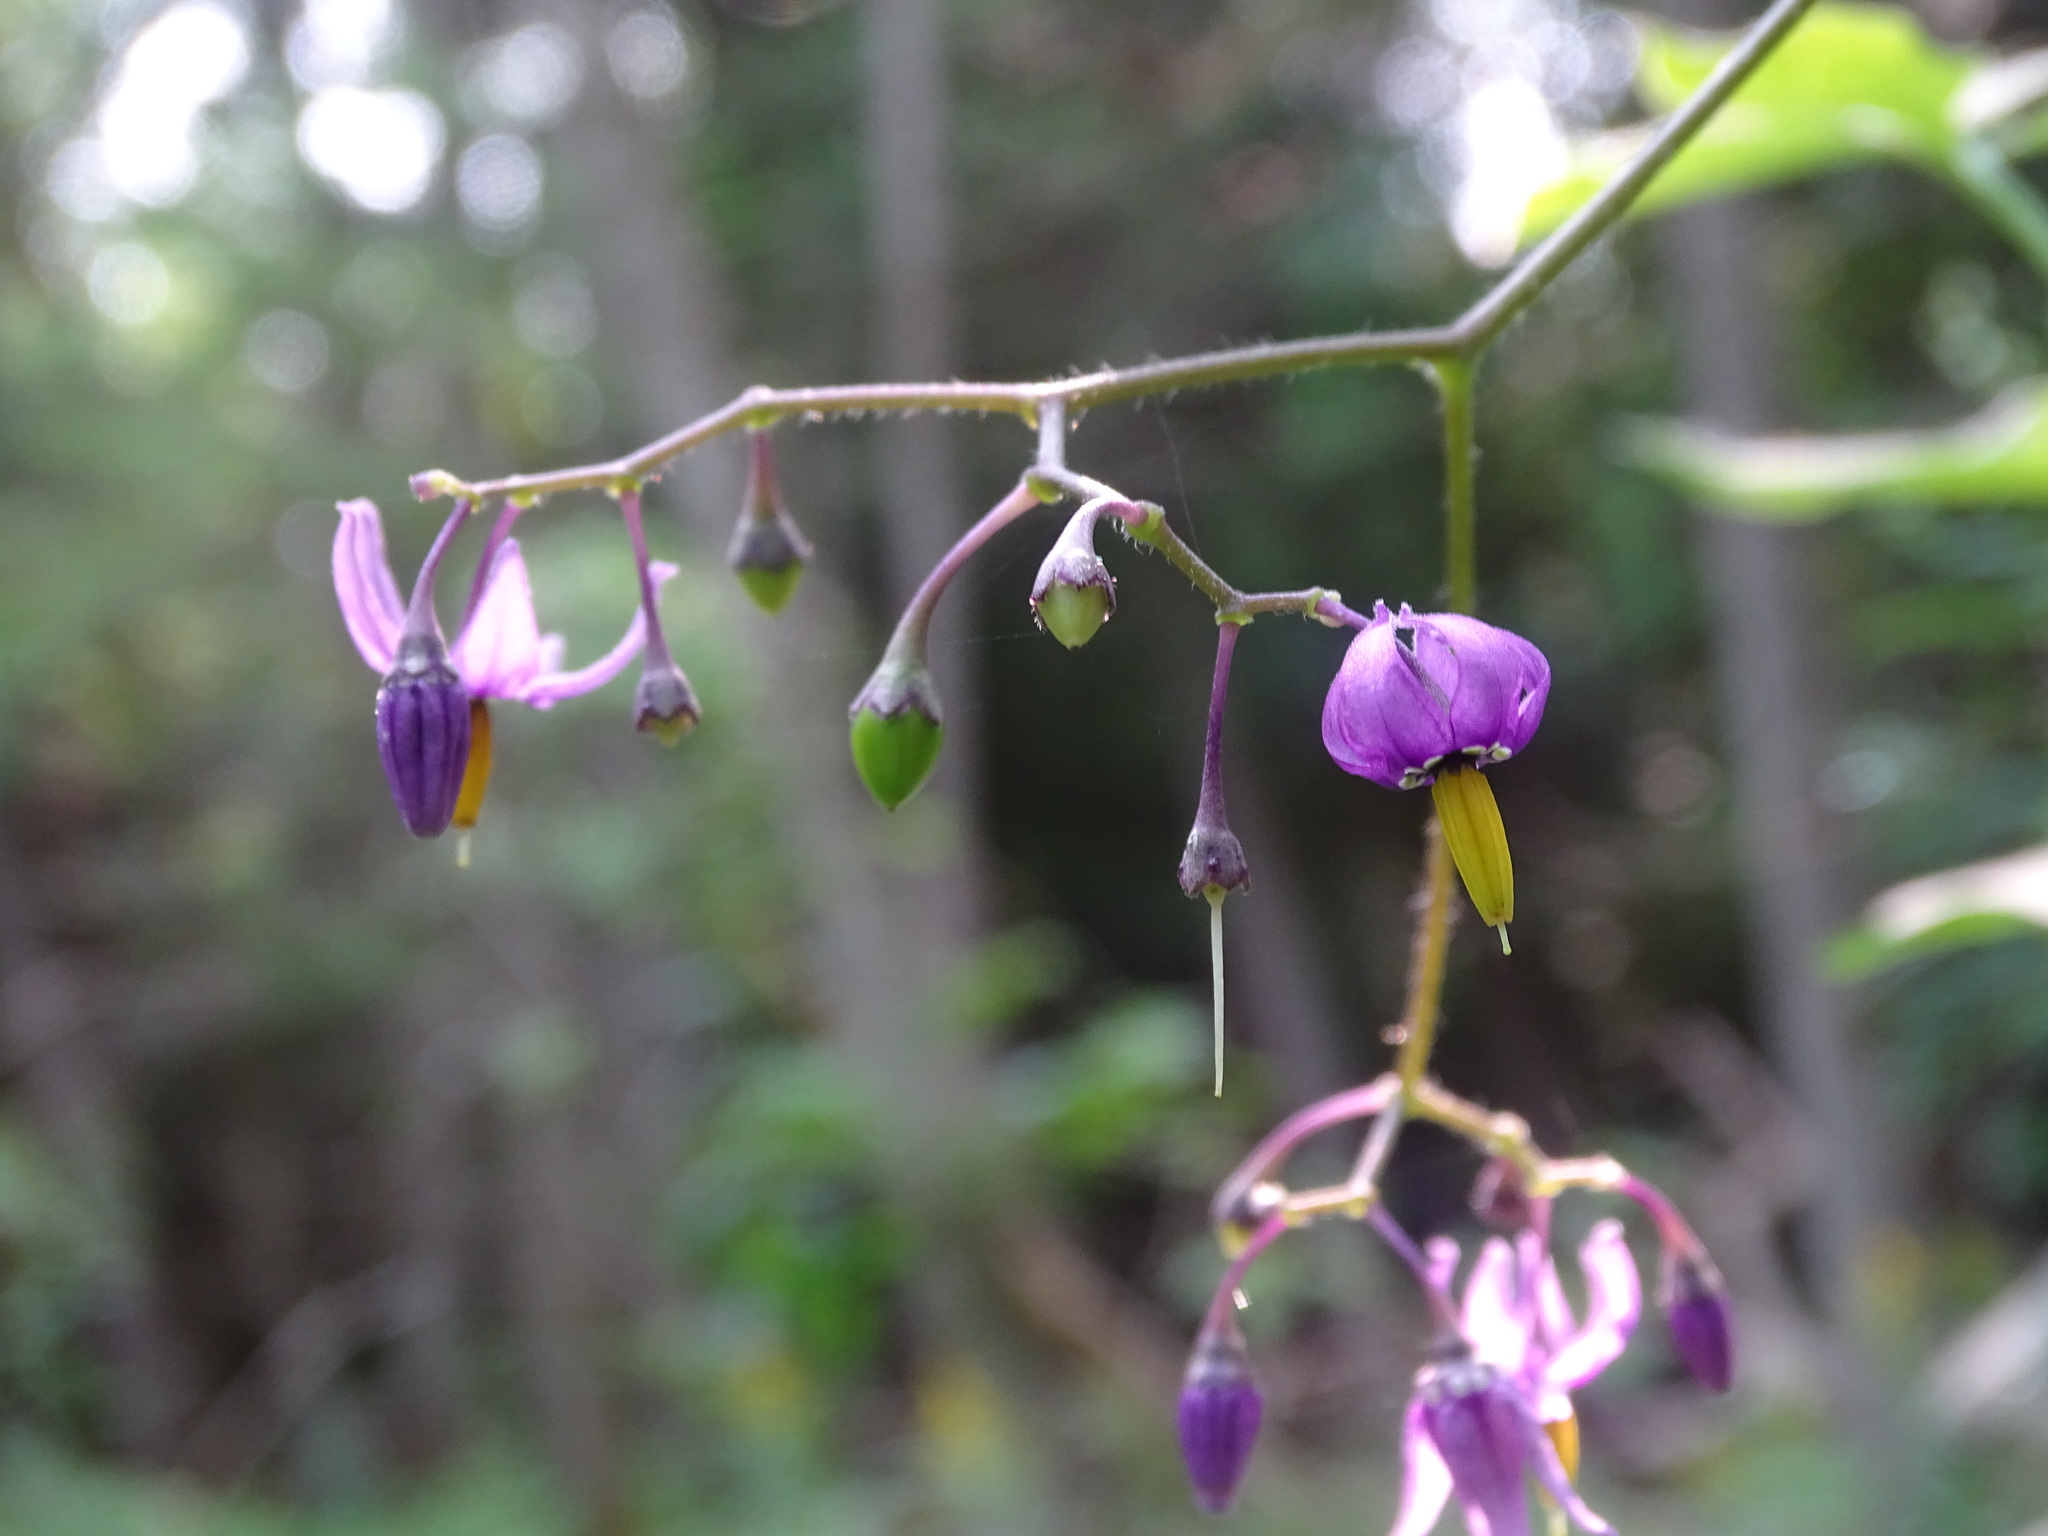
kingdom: Plantae
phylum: Tracheophyta
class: Magnoliopsida
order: Solanales
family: Solanaceae
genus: Solanum
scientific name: Solanum dulcamara
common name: Climbing nightshade
